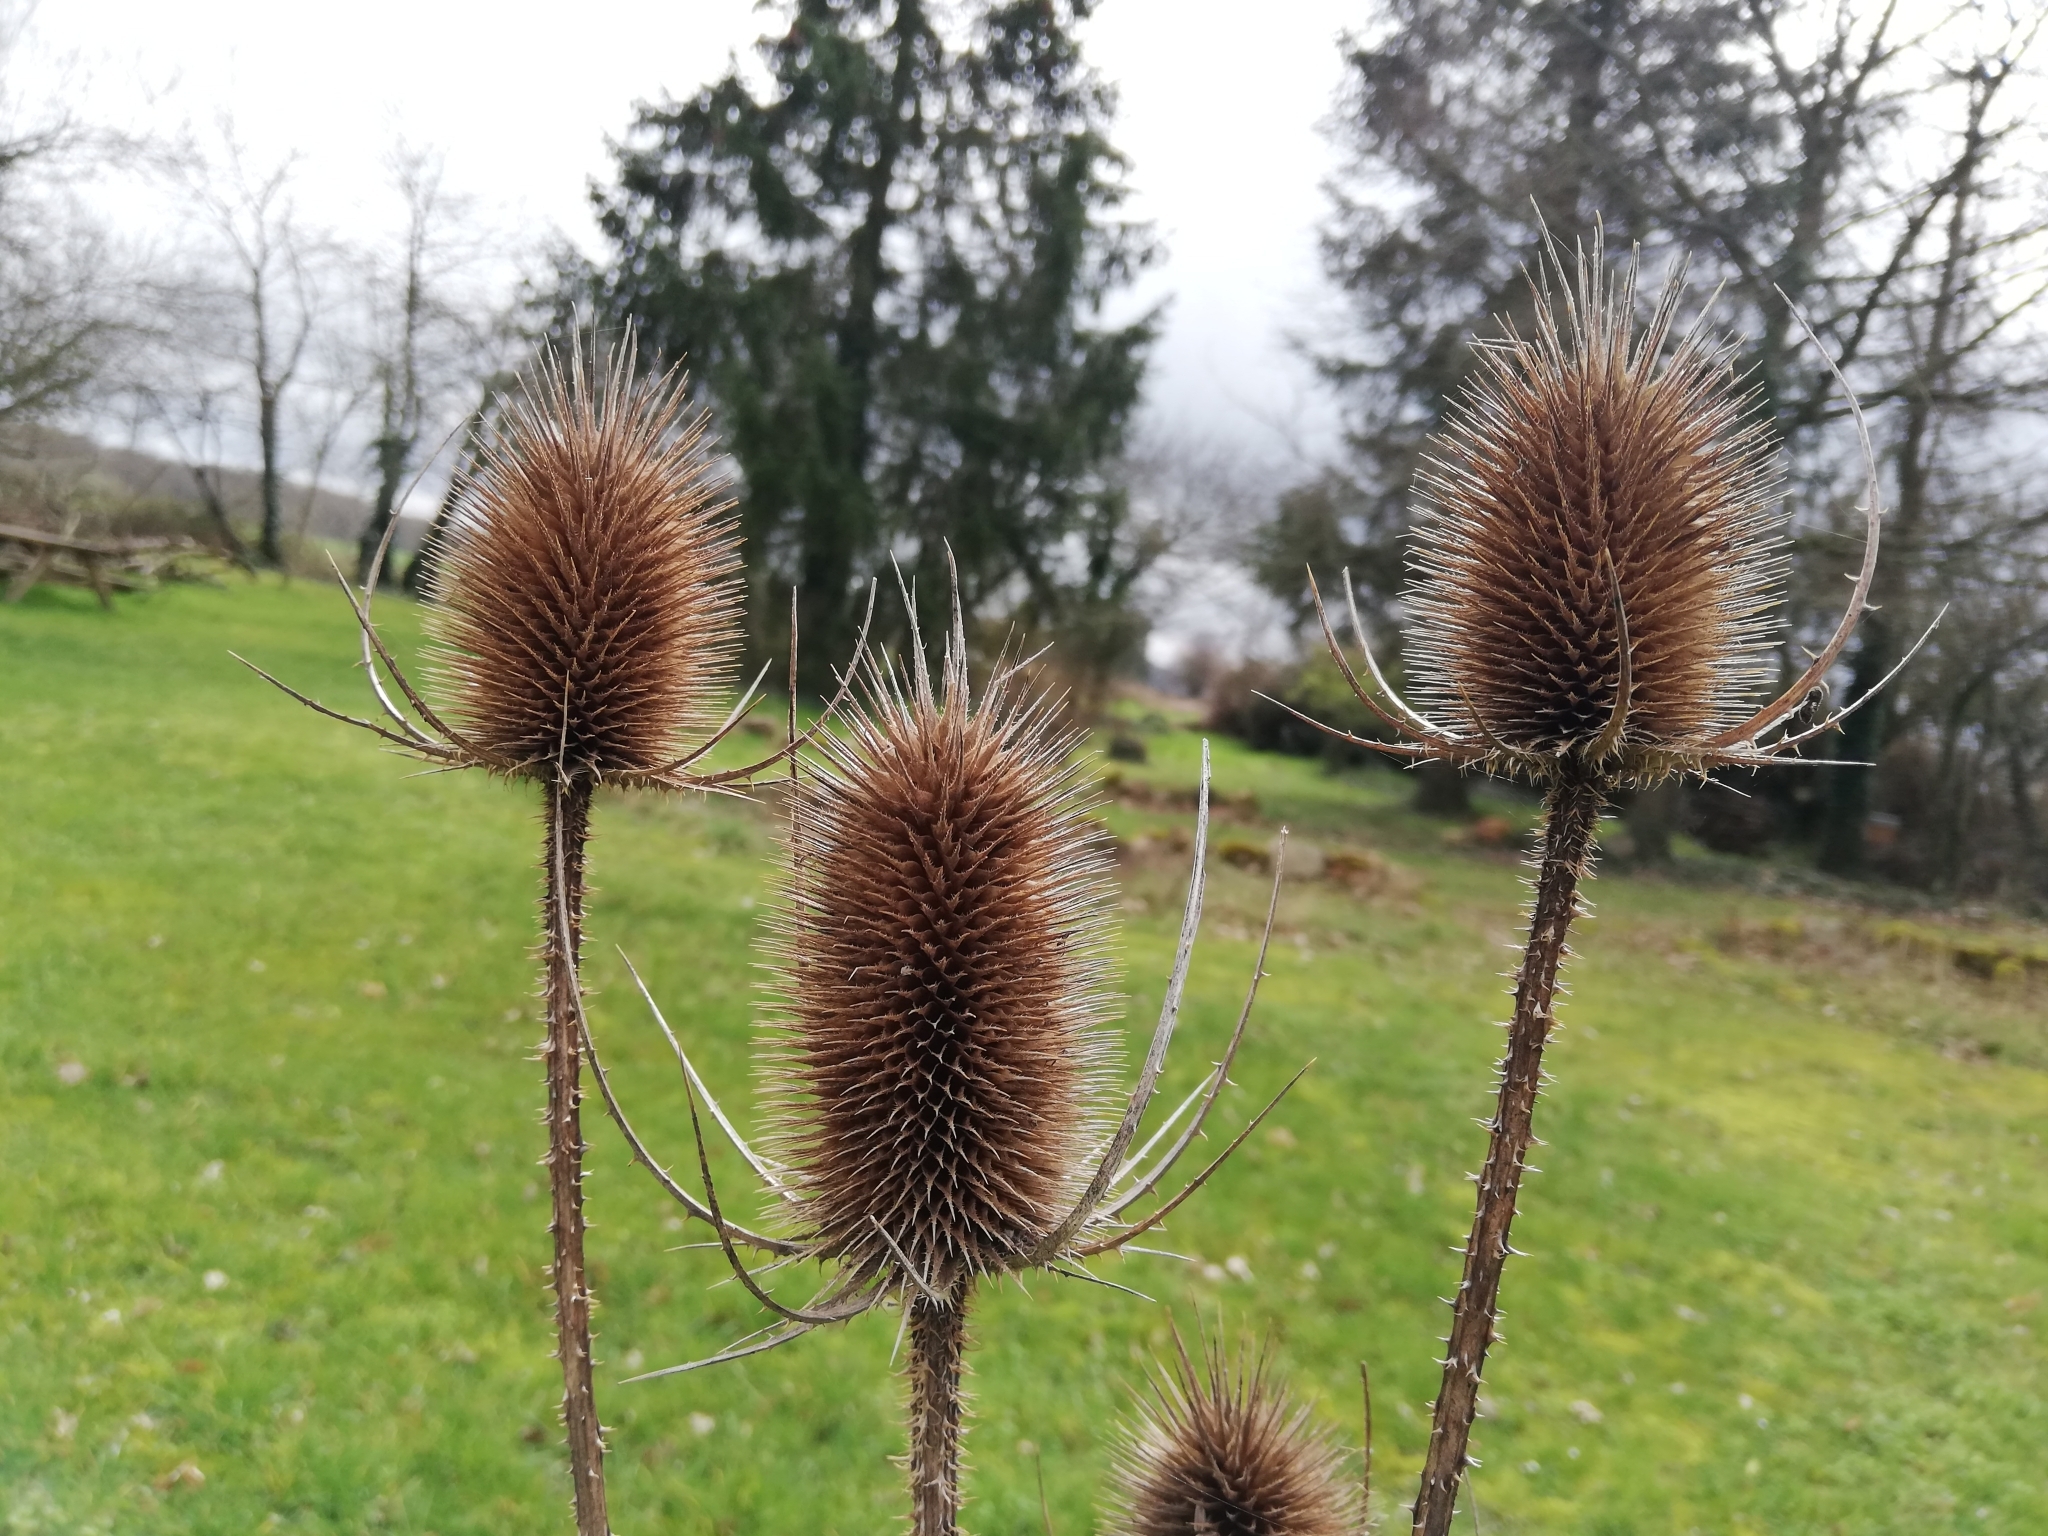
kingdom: Plantae
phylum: Tracheophyta
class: Magnoliopsida
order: Dipsacales
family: Caprifoliaceae
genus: Dipsacus
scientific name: Dipsacus fullonum
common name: Teasel
